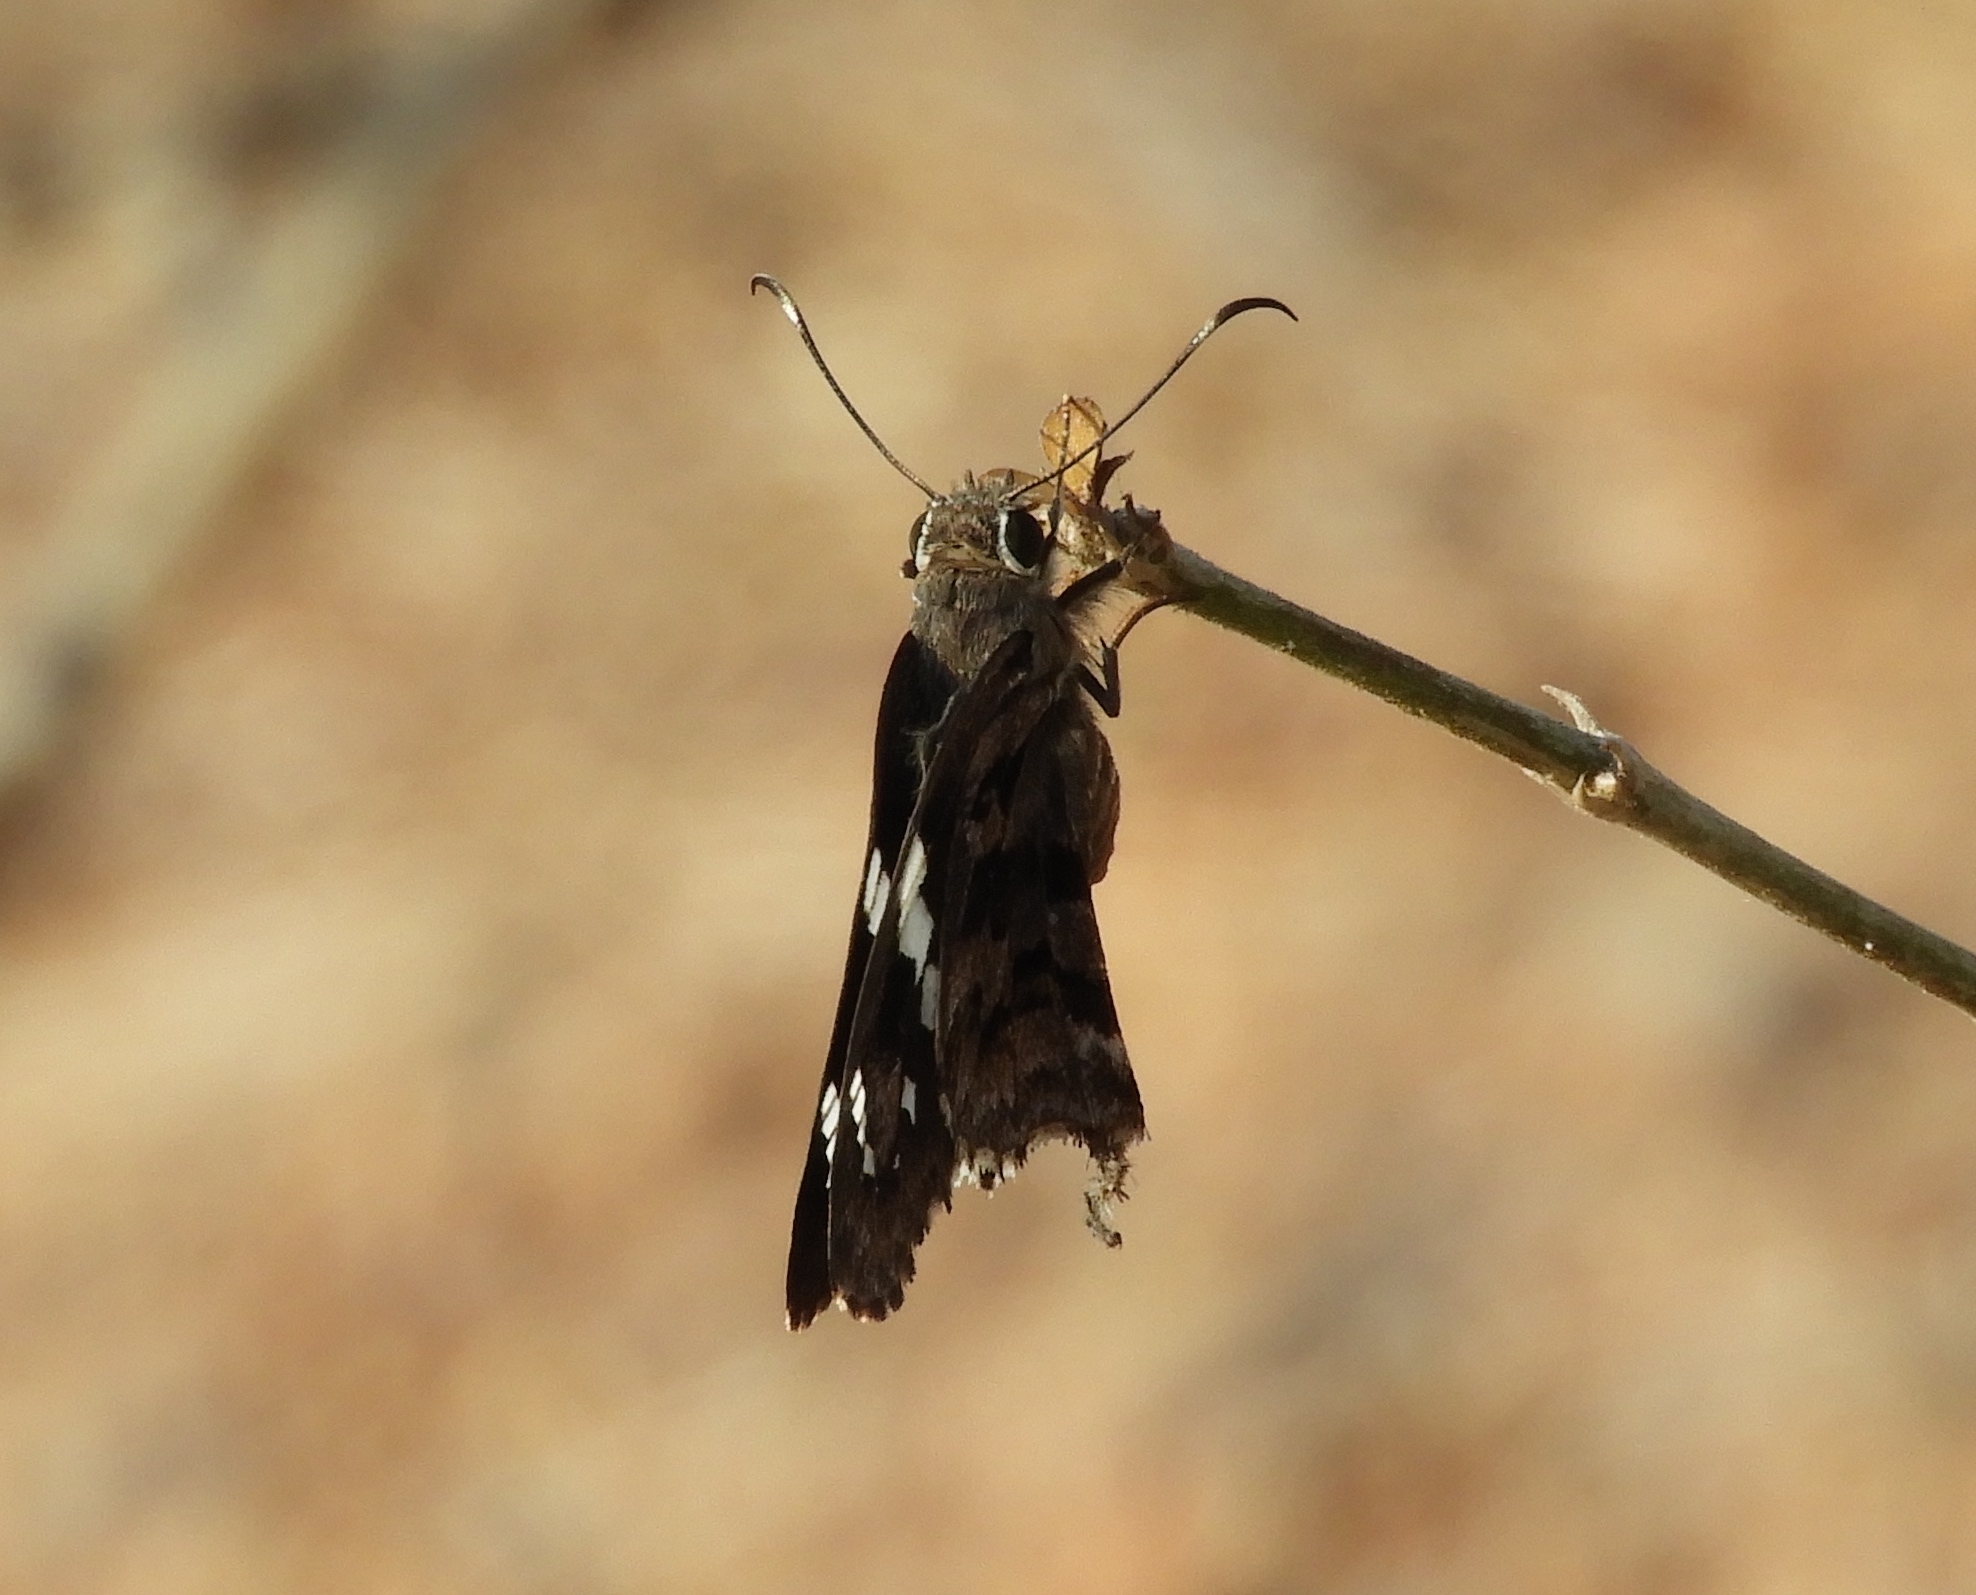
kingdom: Animalia
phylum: Arthropoda
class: Insecta
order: Lepidoptera
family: Hesperiidae
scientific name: Hesperiidae
